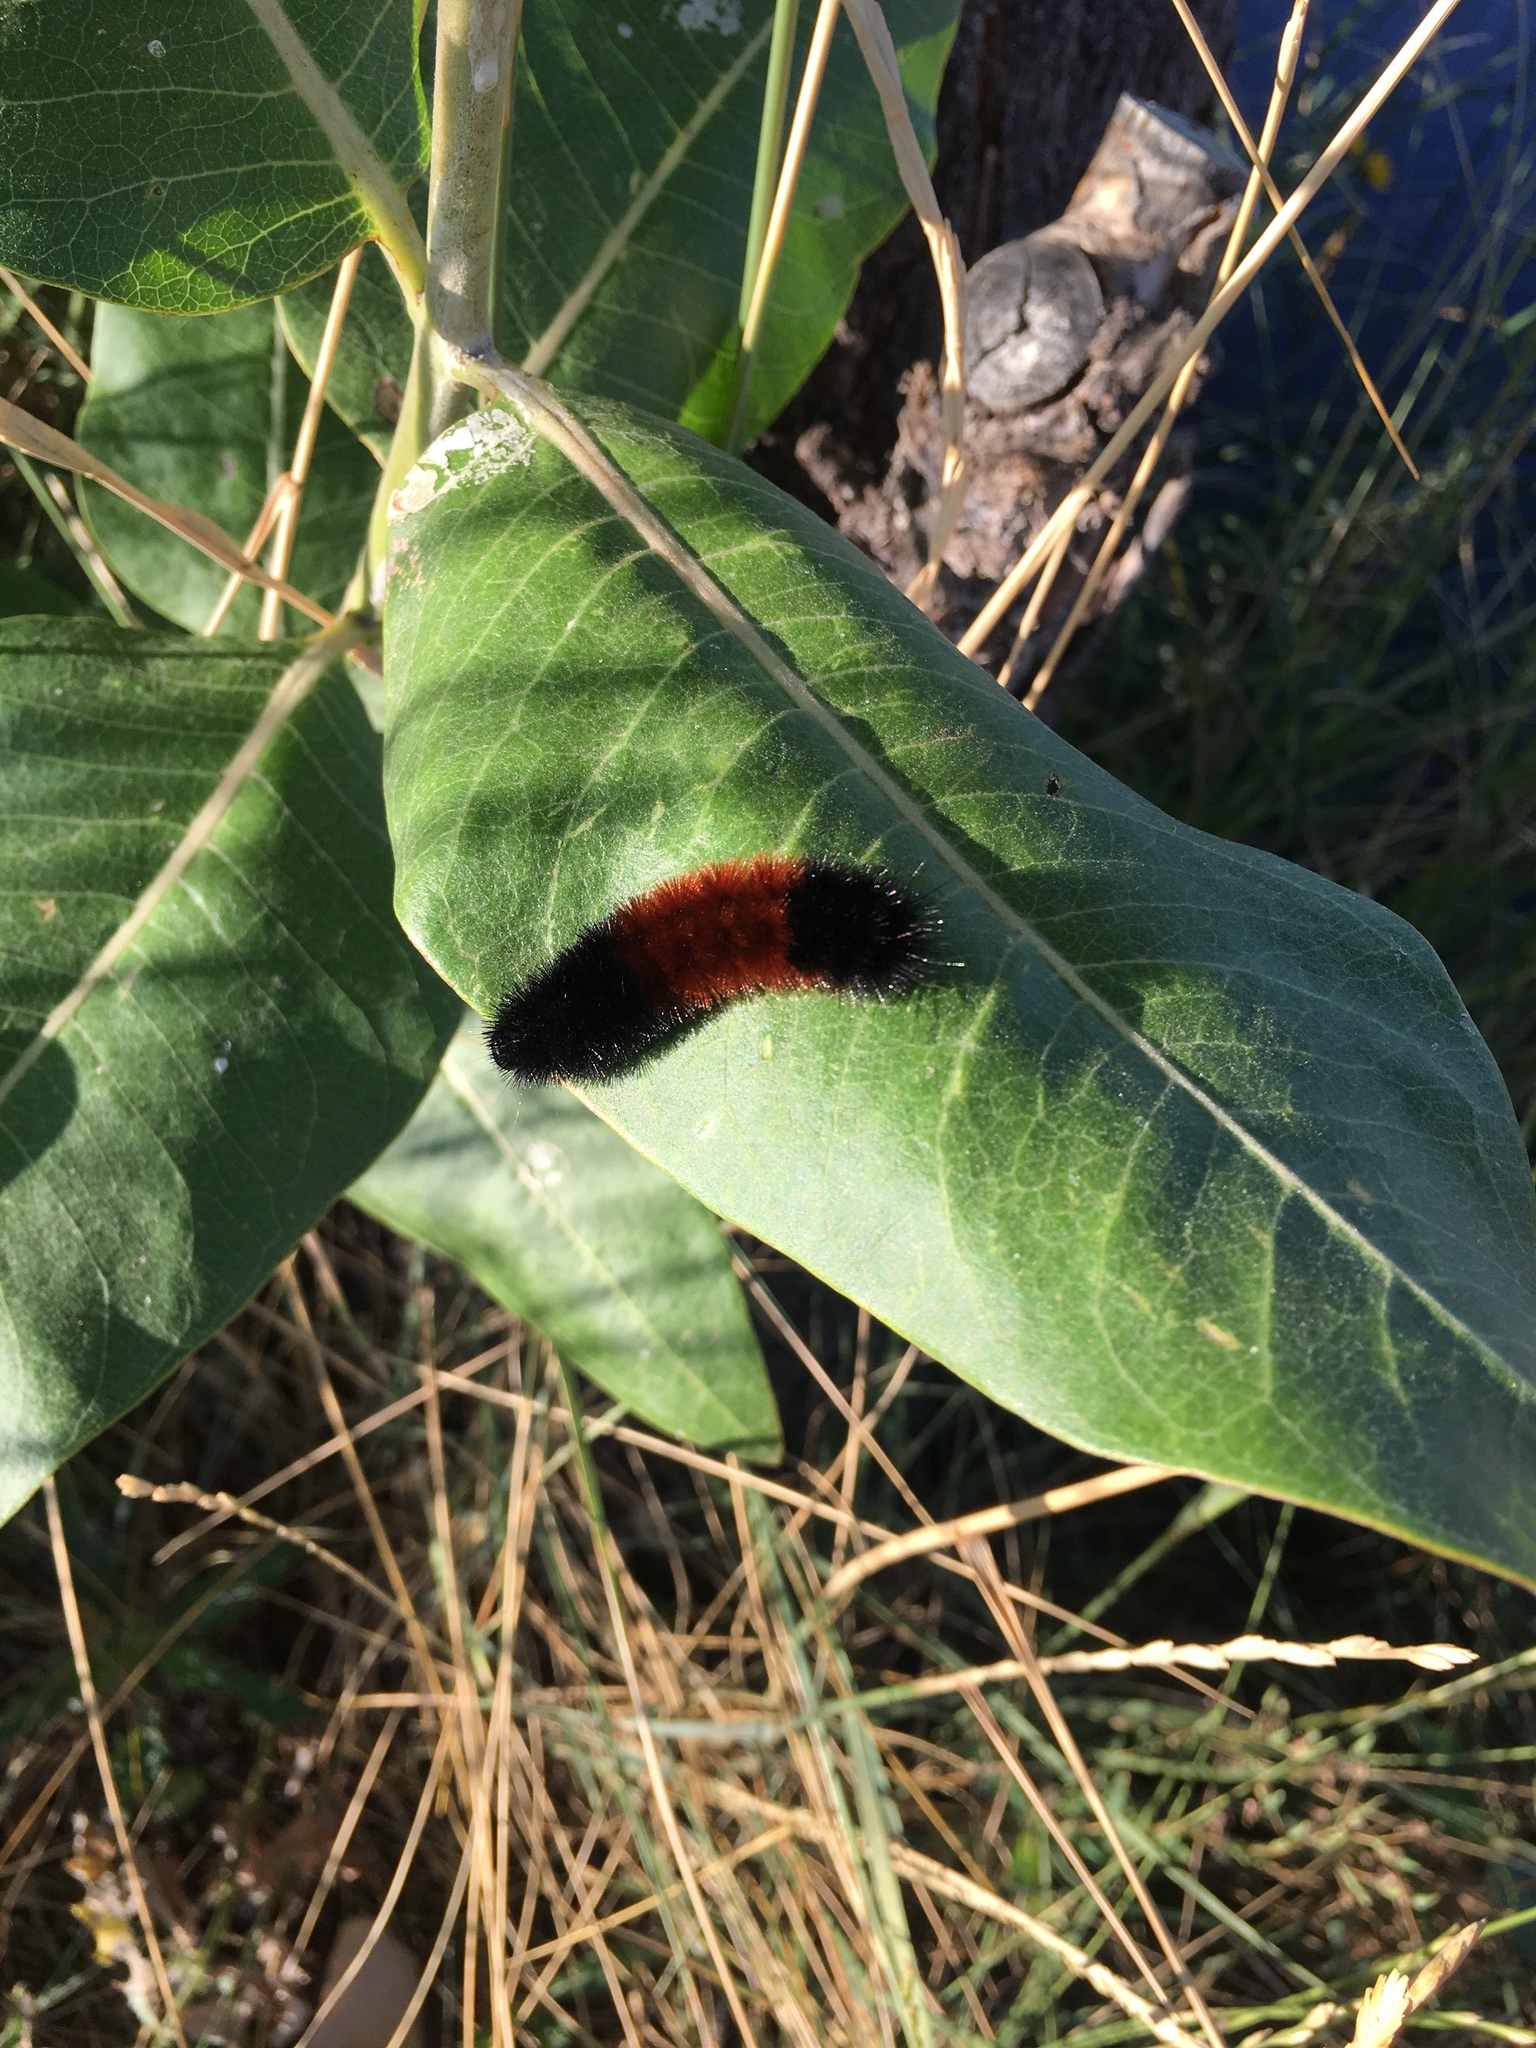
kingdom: Animalia
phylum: Arthropoda
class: Insecta
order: Lepidoptera
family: Erebidae
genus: Pyrrharctia
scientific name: Pyrrharctia isabella
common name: Isabella tiger moth
